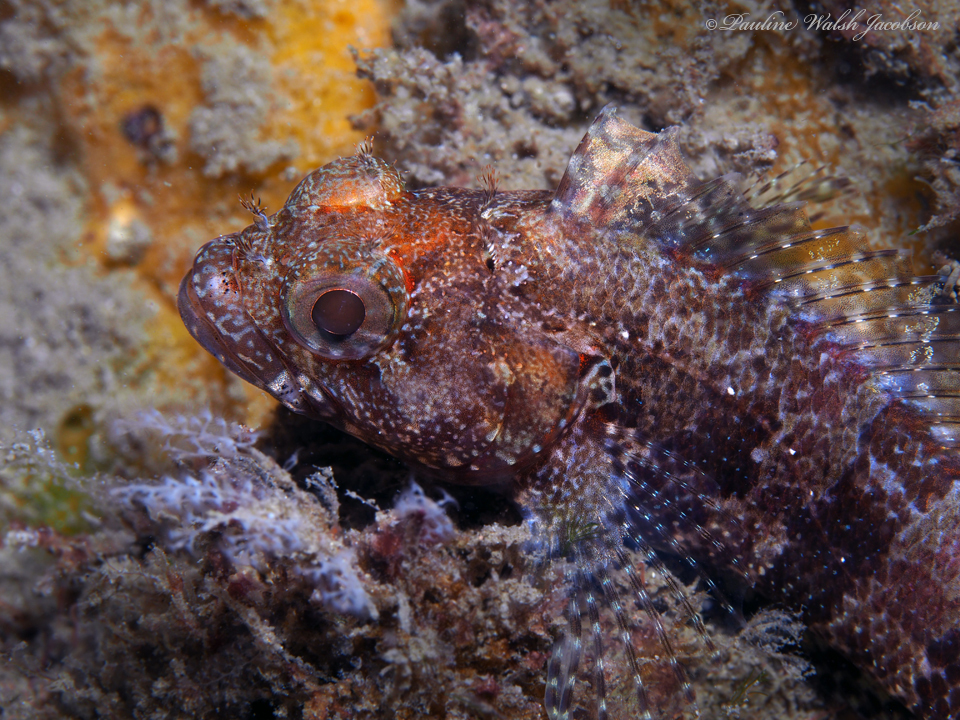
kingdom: Animalia
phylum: Chordata
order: Perciformes
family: Labrisomidae
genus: Gobioclinus
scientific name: Gobioclinus kalisherae
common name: Downy blenny
